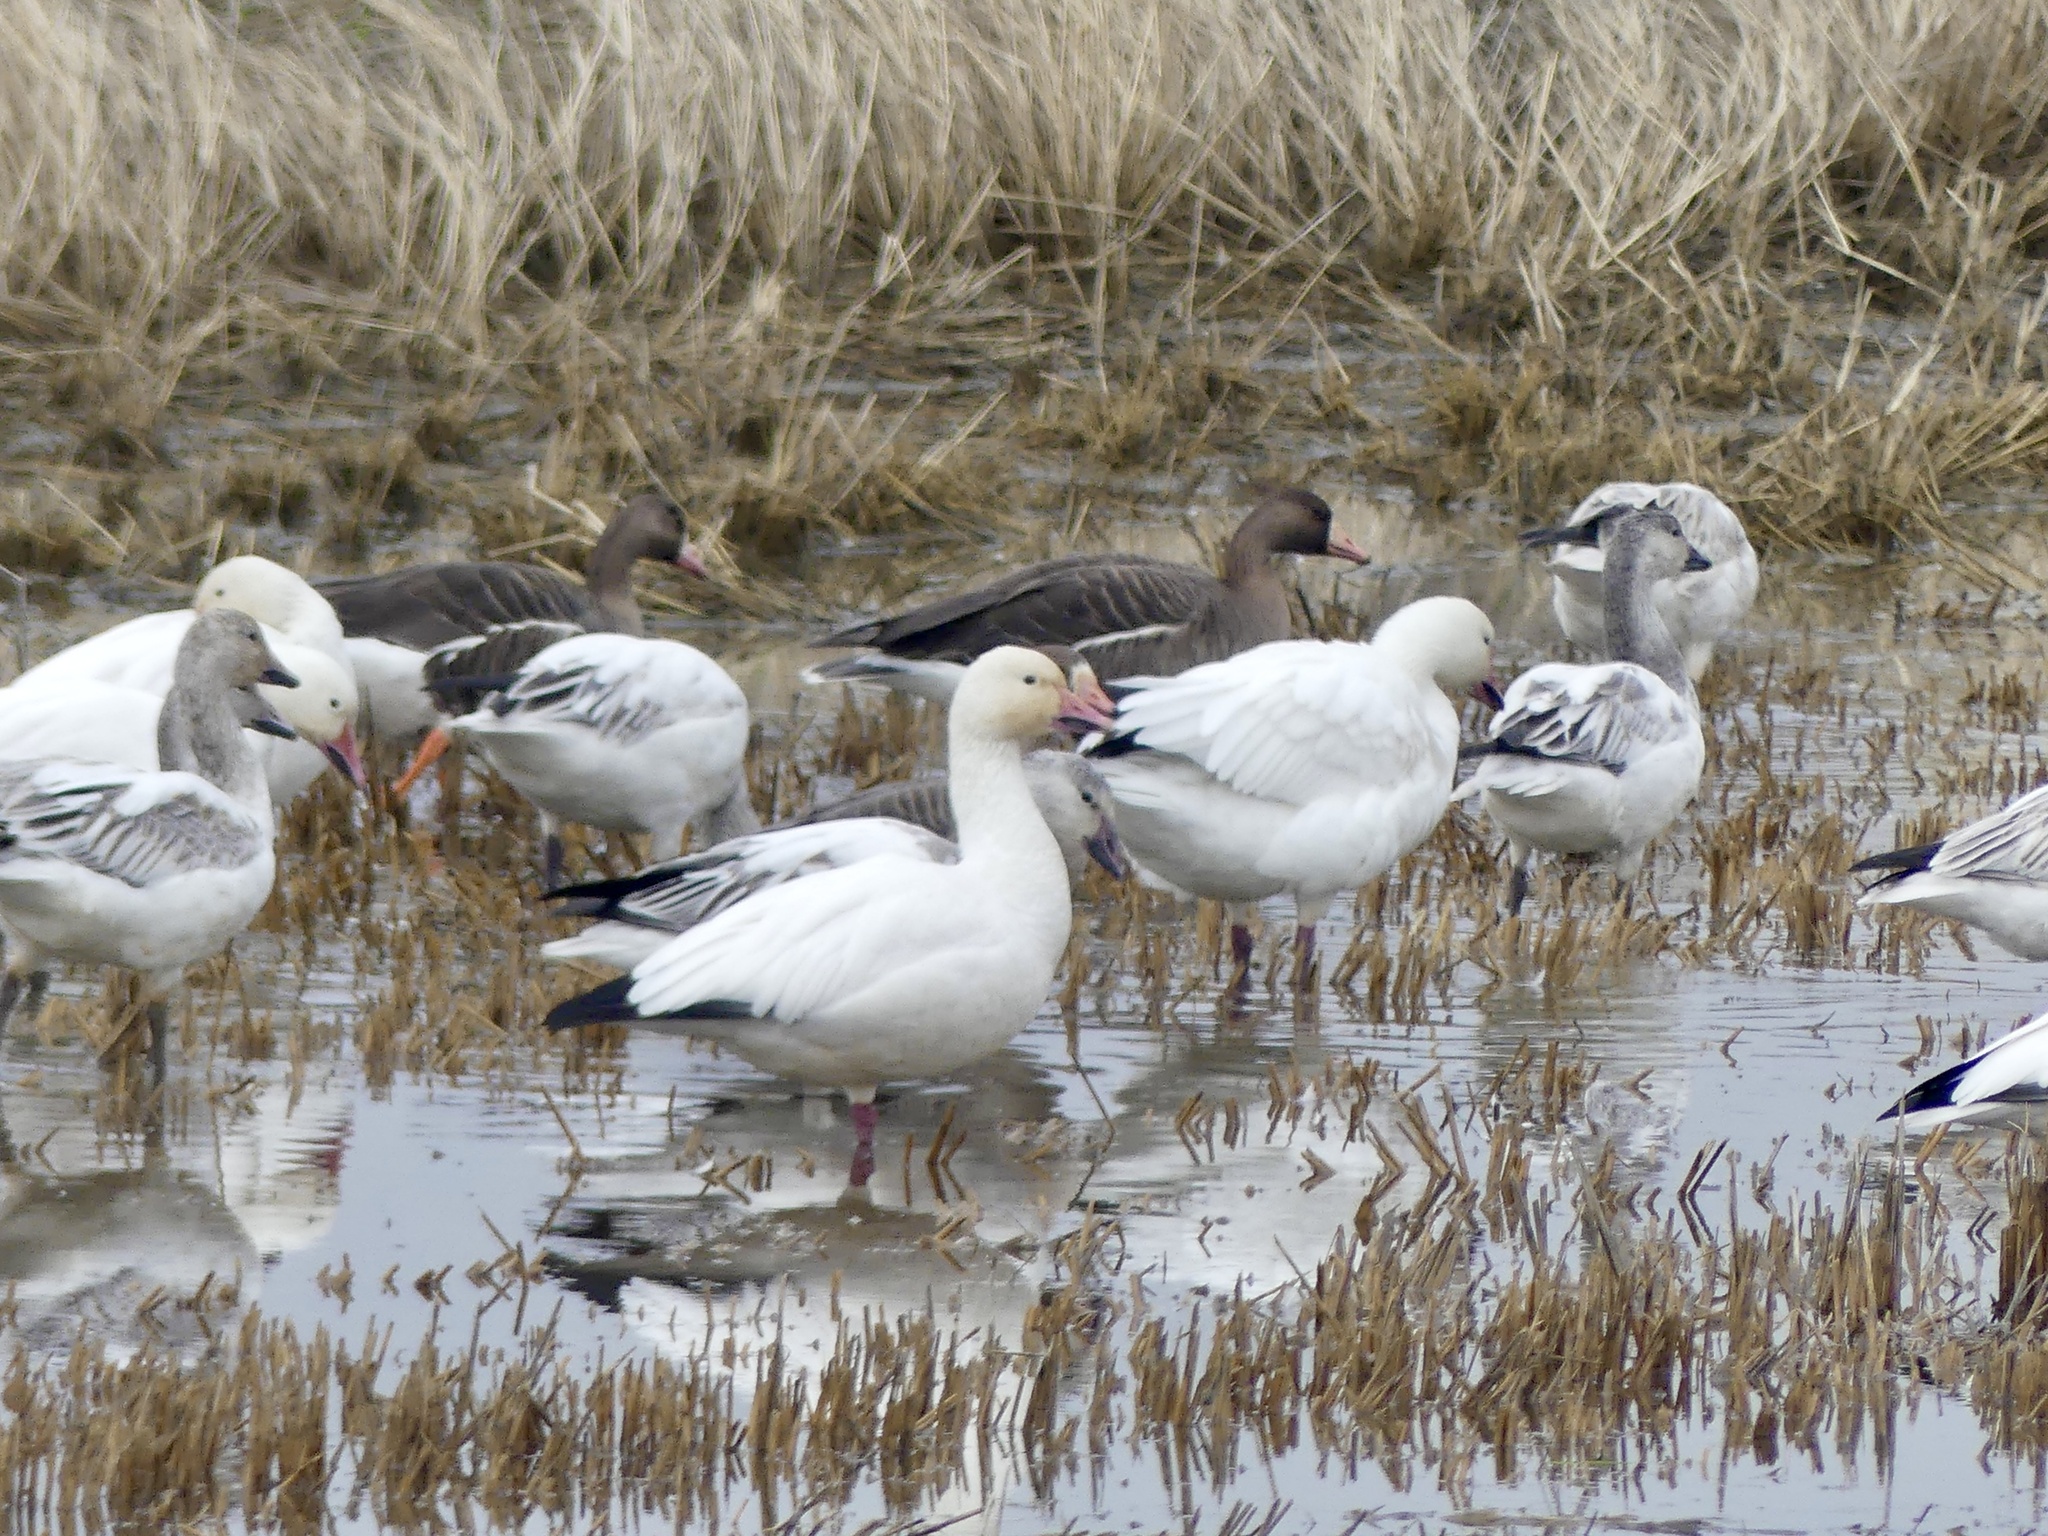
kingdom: Animalia
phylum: Chordata
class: Aves
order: Anseriformes
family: Anatidae
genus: Anser
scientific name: Anser caerulescens
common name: Snow goose
